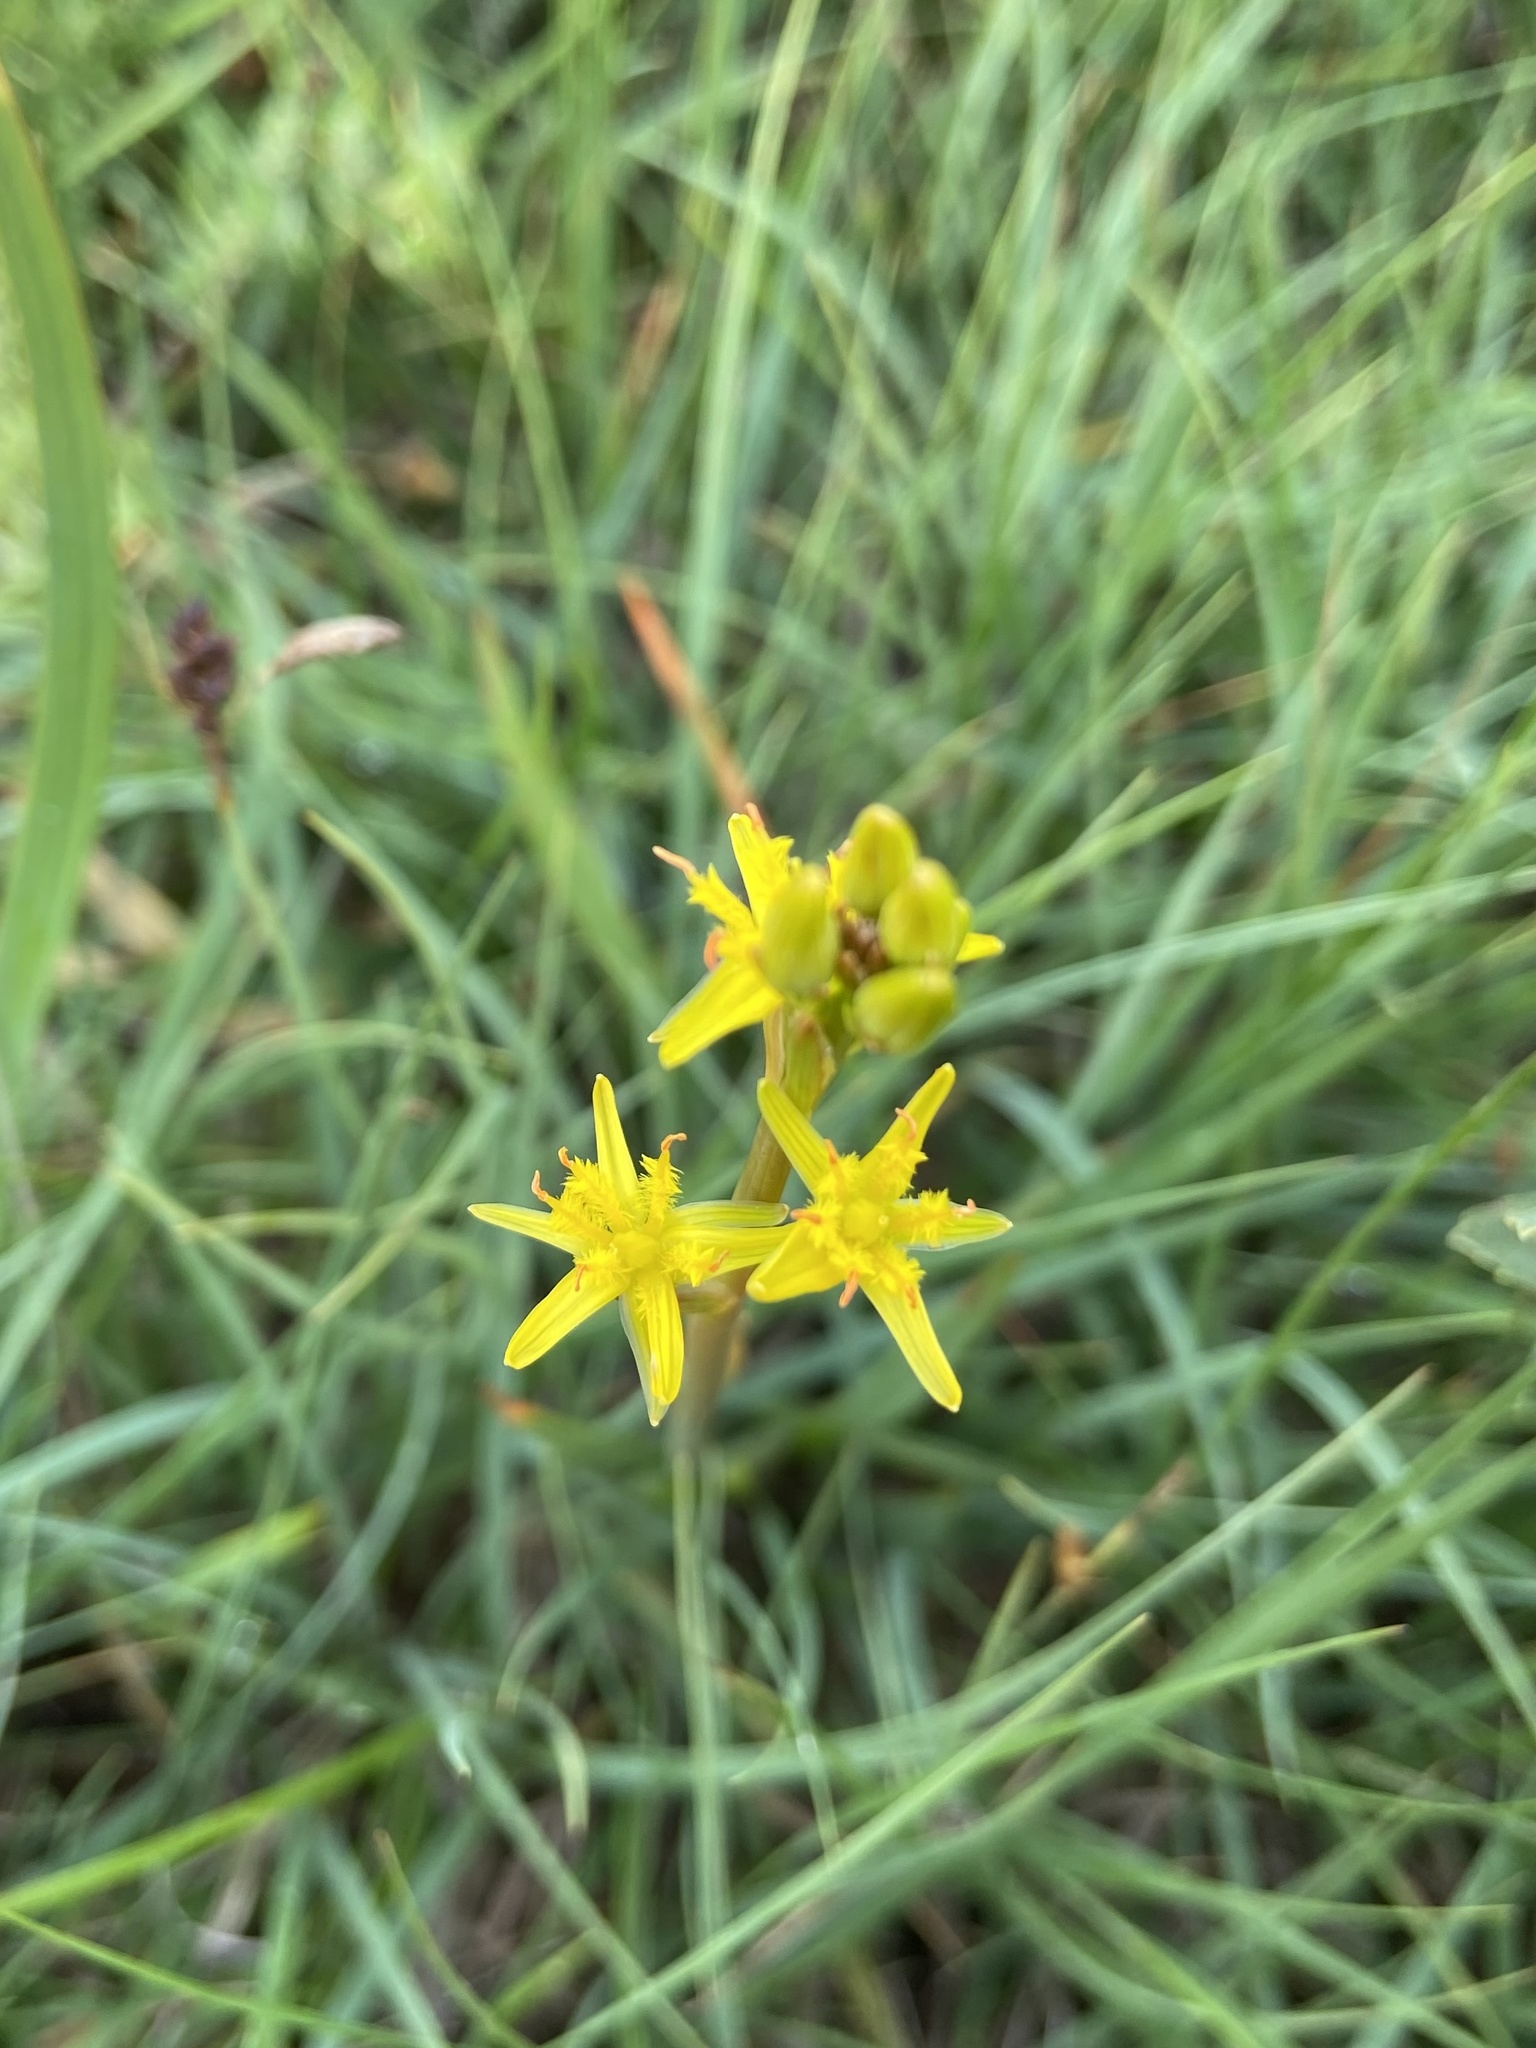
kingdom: Plantae
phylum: Tracheophyta
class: Liliopsida
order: Dioscoreales
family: Nartheciaceae
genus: Narthecium
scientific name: Narthecium ossifragum
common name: Bog asphodel
